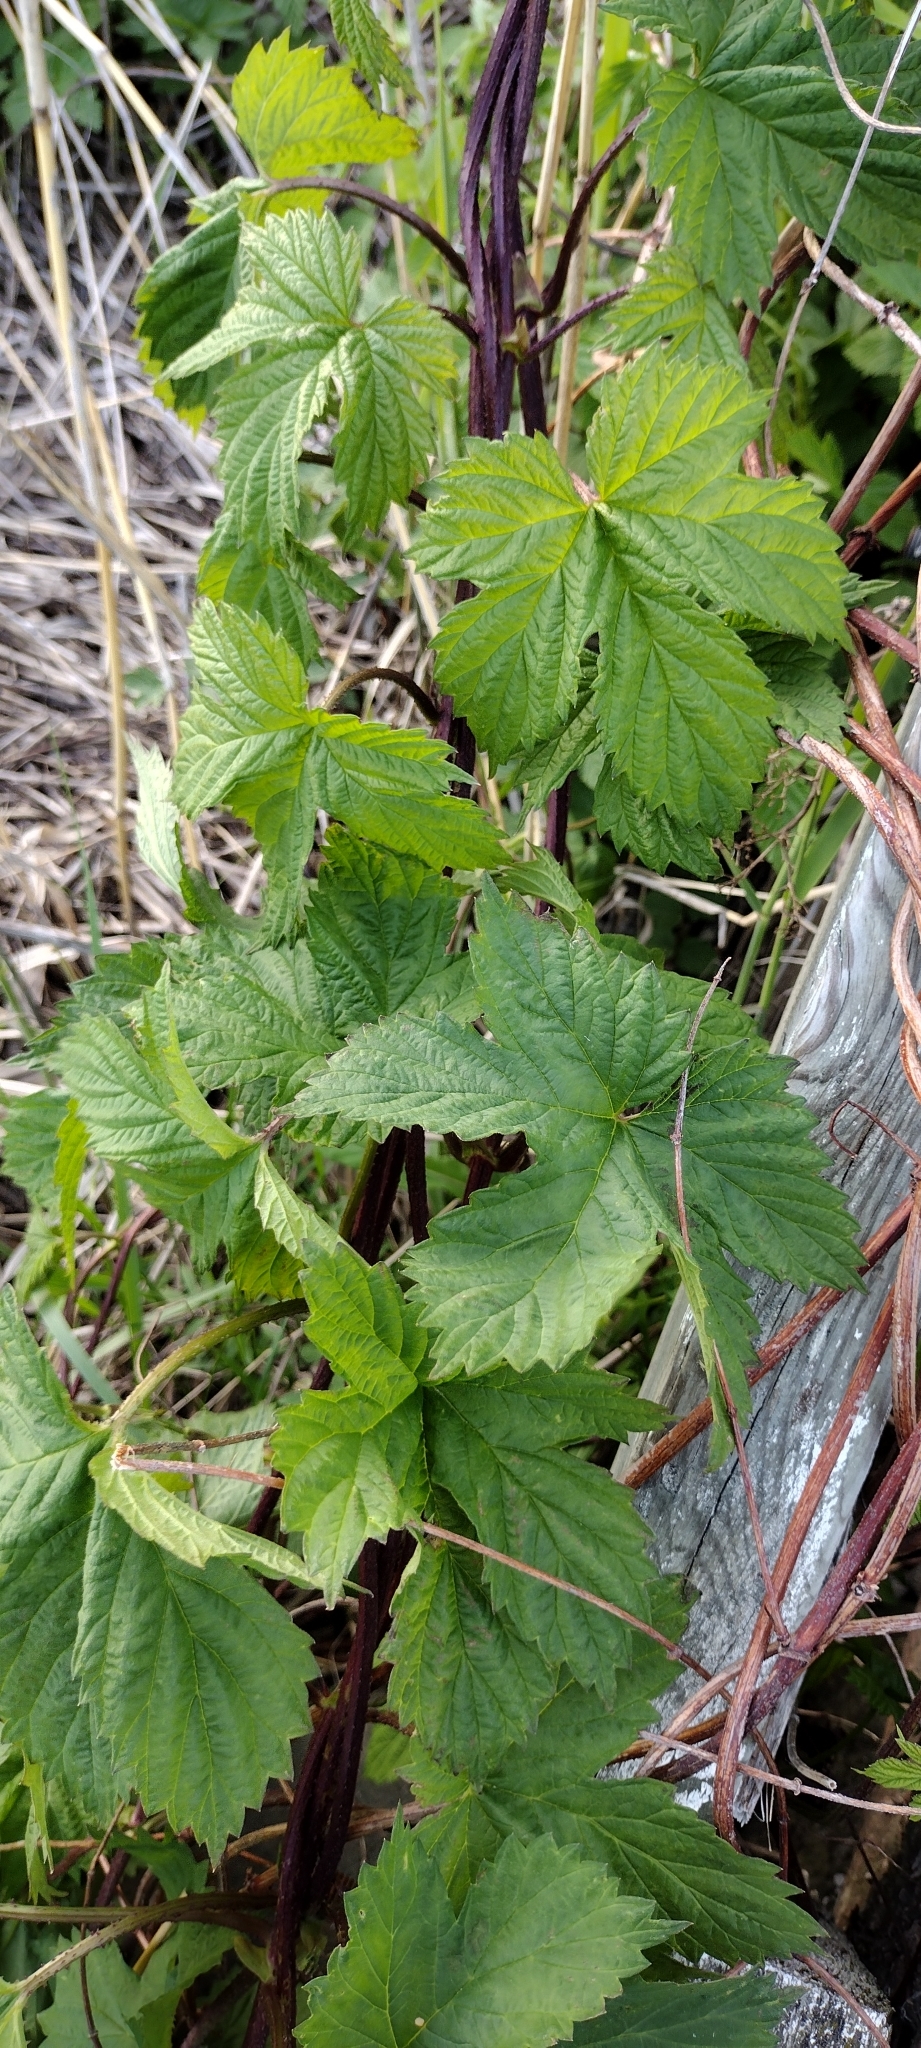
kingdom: Plantae
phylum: Tracheophyta
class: Magnoliopsida
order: Rosales
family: Cannabaceae
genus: Humulus
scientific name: Humulus lupulus
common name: Hop
